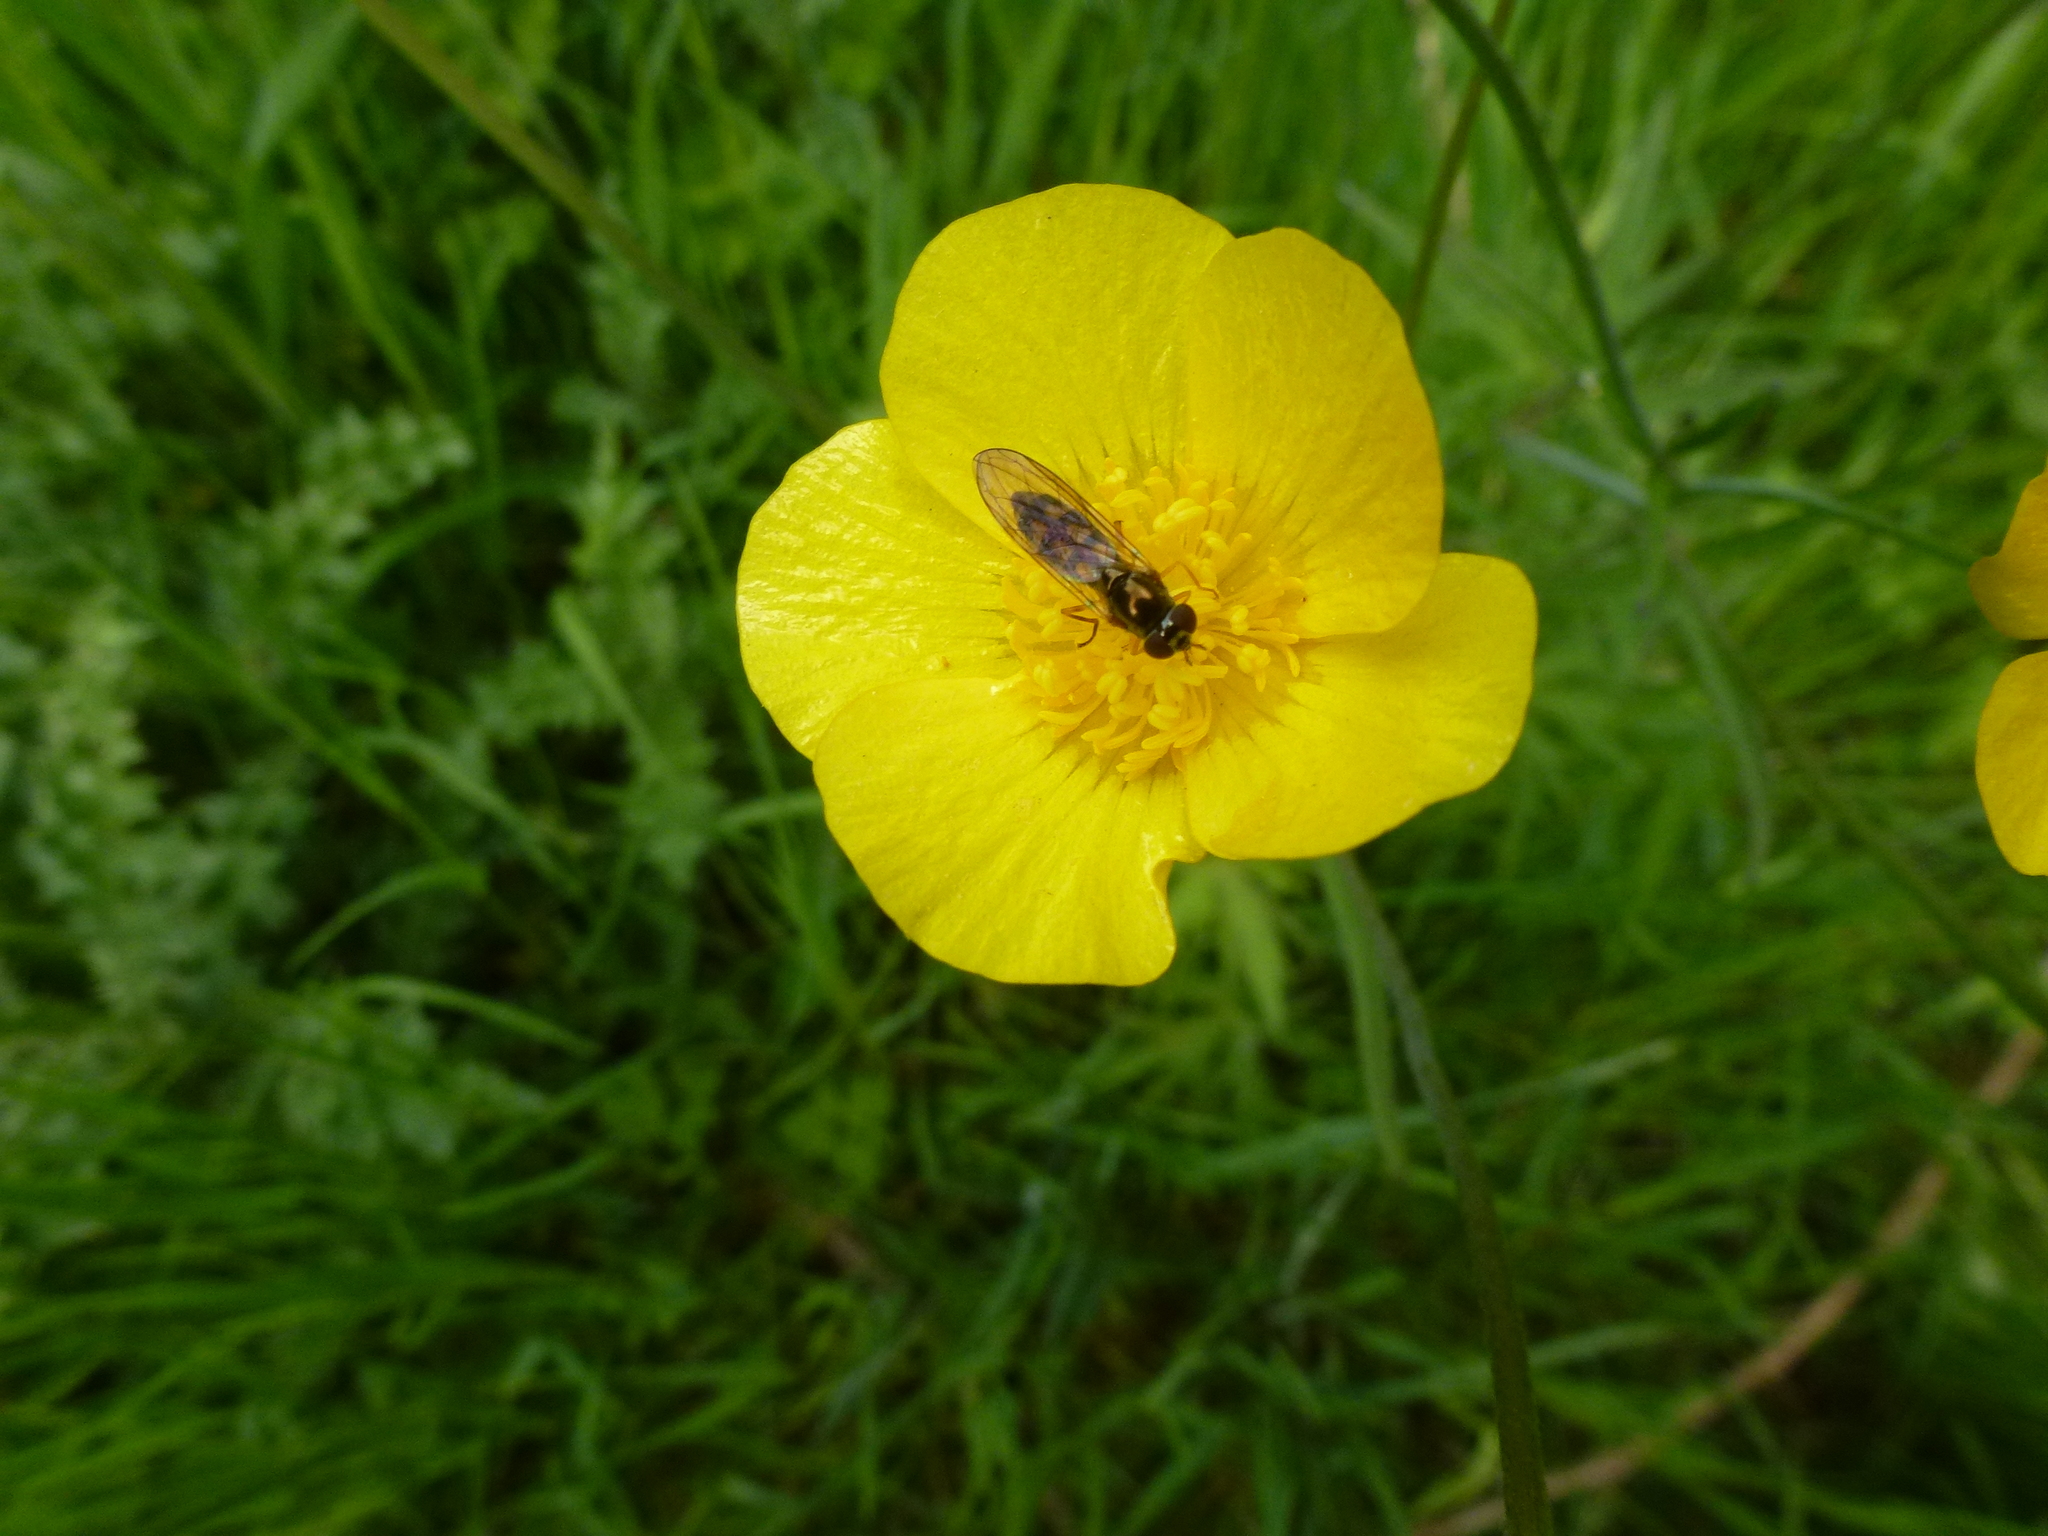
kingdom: Animalia
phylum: Arthropoda
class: Insecta
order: Diptera
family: Syrphidae
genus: Melanostoma
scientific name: Melanostoma scalare
